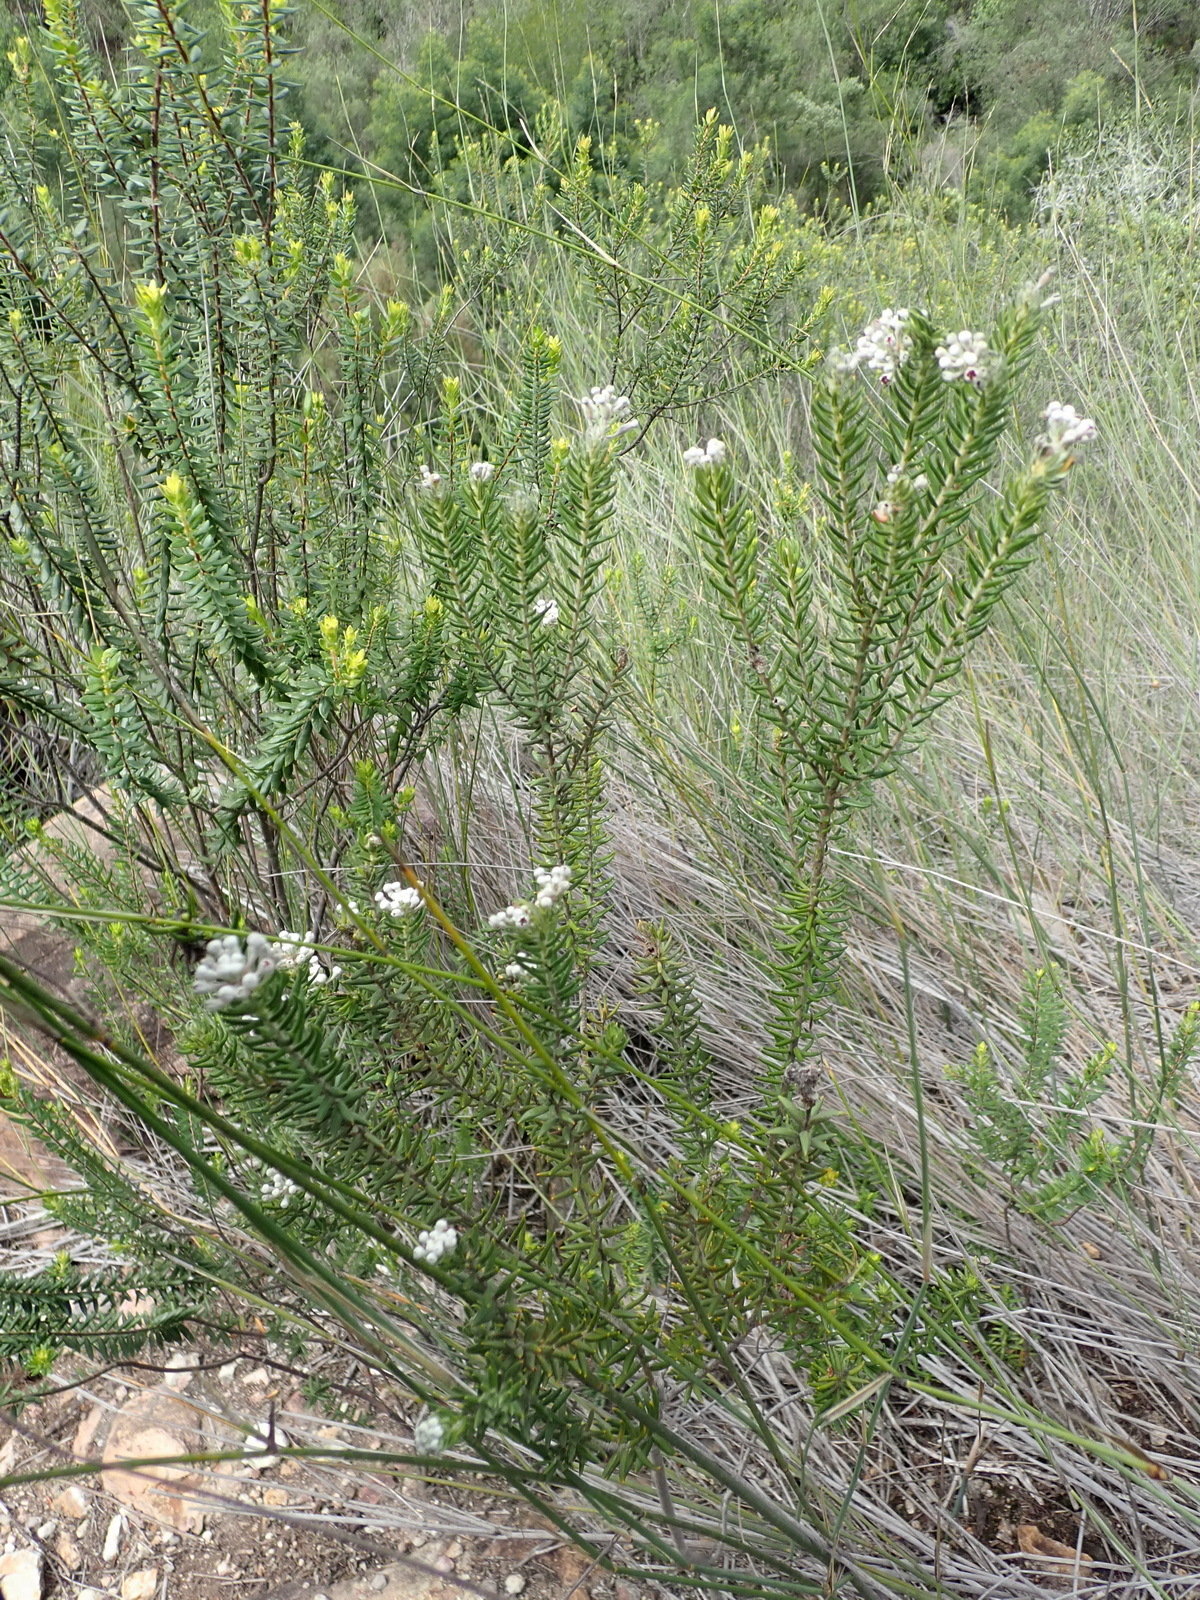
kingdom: Plantae
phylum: Tracheophyta
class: Magnoliopsida
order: Rosales
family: Rhamnaceae
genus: Phylica
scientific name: Phylica pinea
